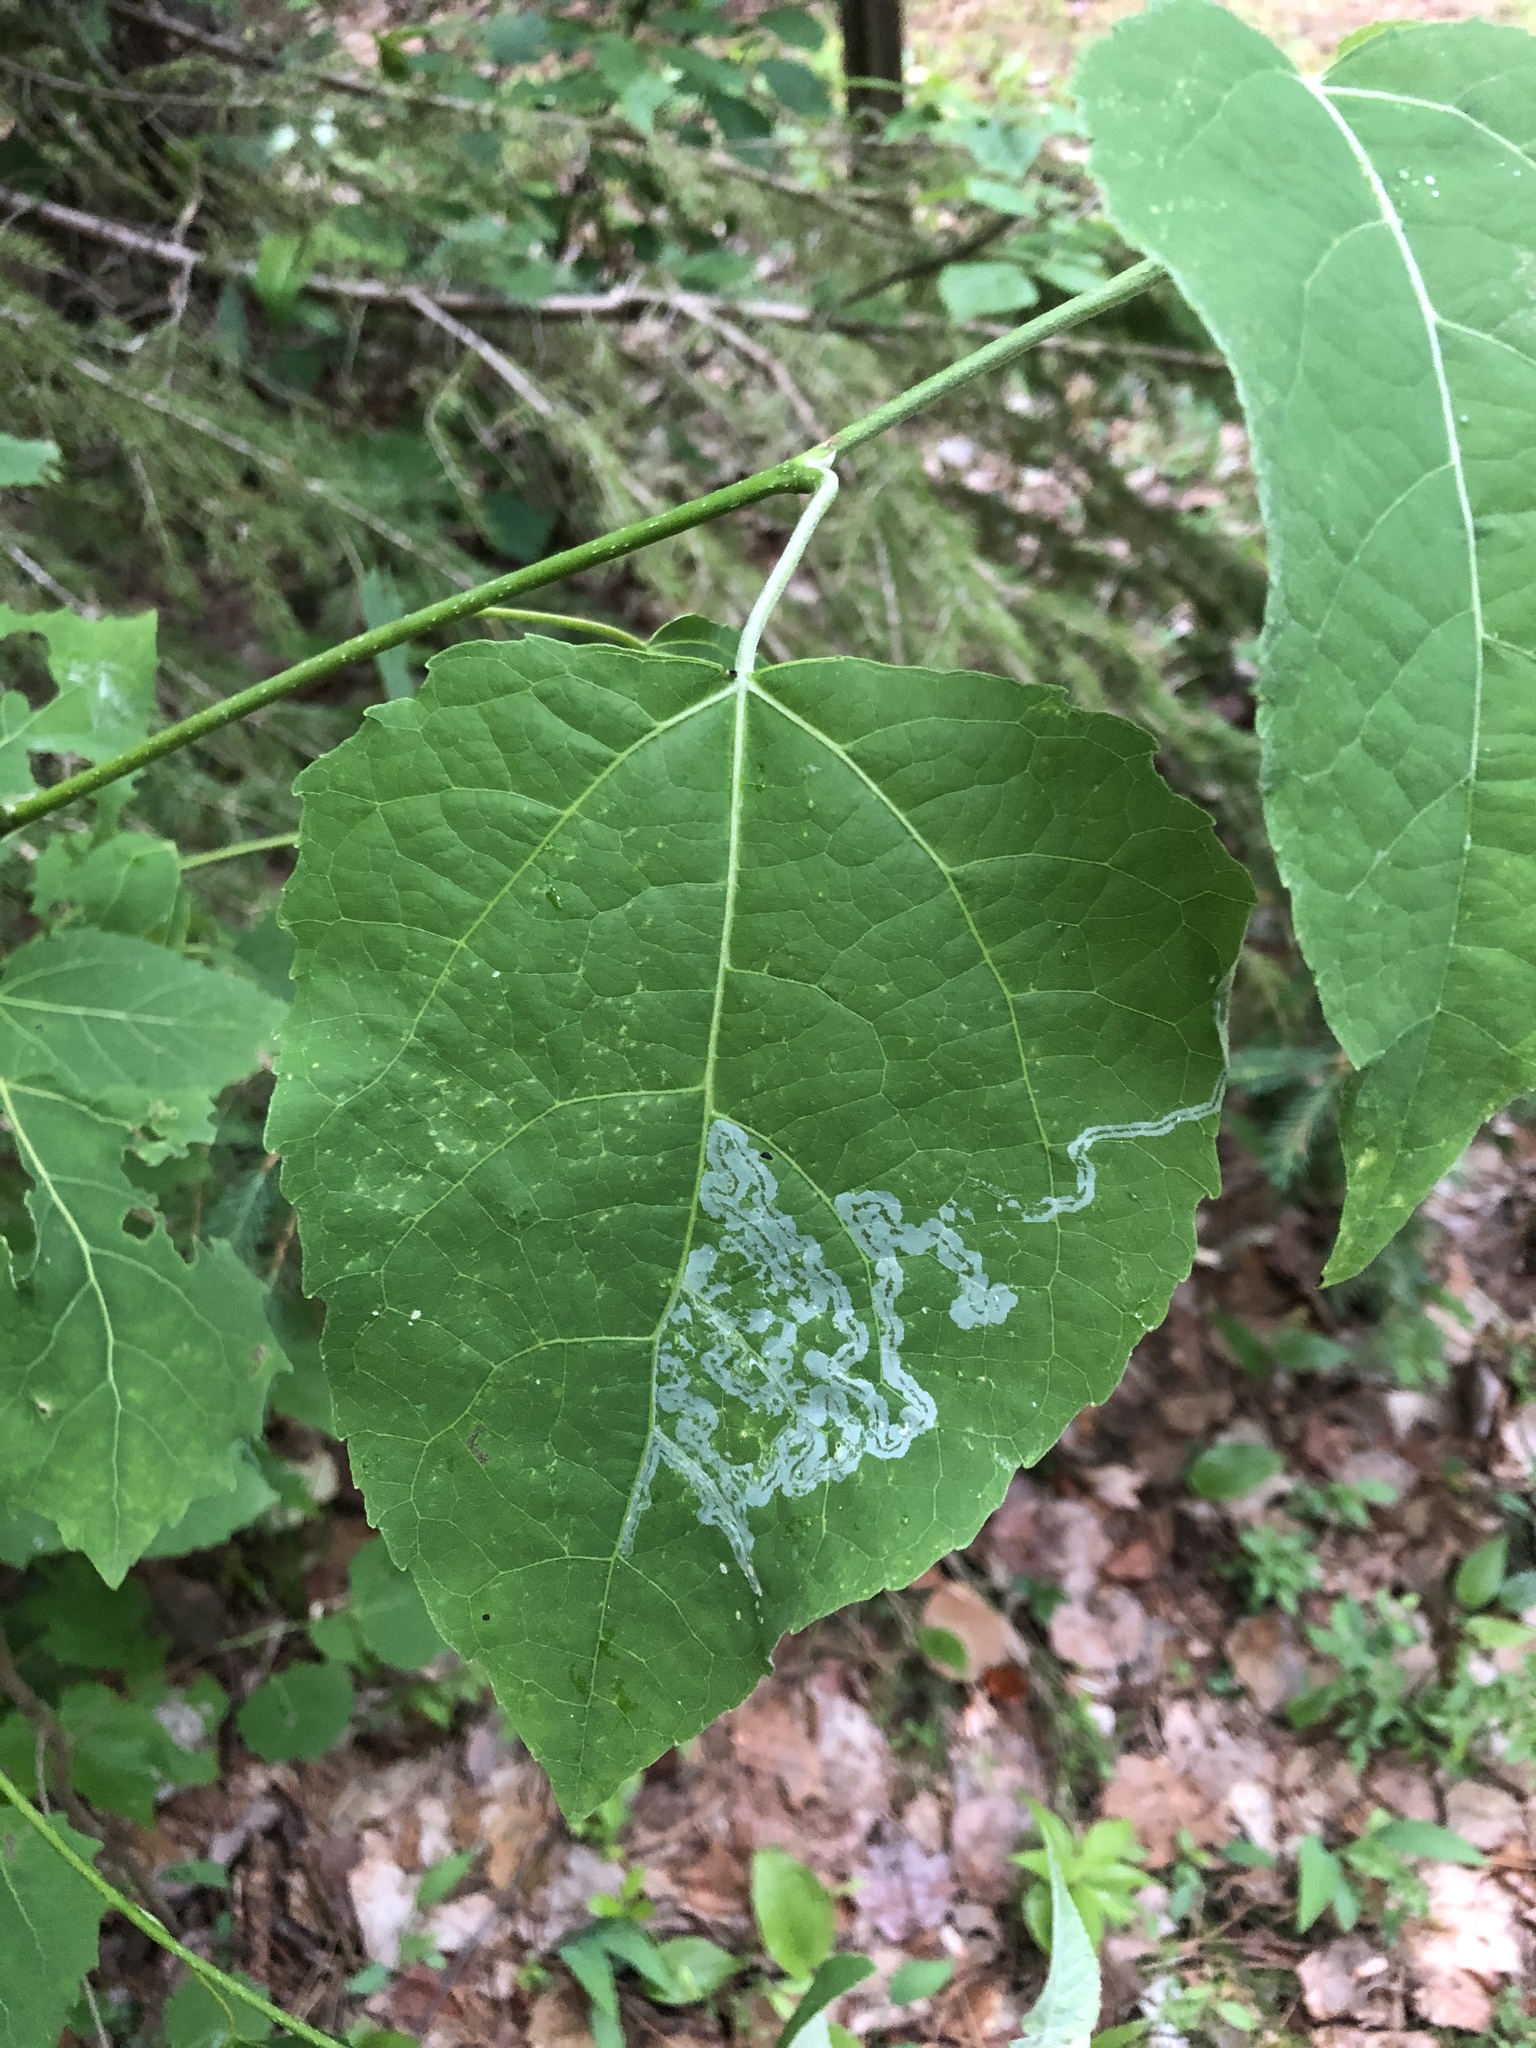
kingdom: Animalia
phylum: Arthropoda
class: Insecta
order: Lepidoptera
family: Gracillariidae
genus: Phyllocnistis
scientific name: Phyllocnistis populiella
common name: Aspen serpentine leafminer moth
